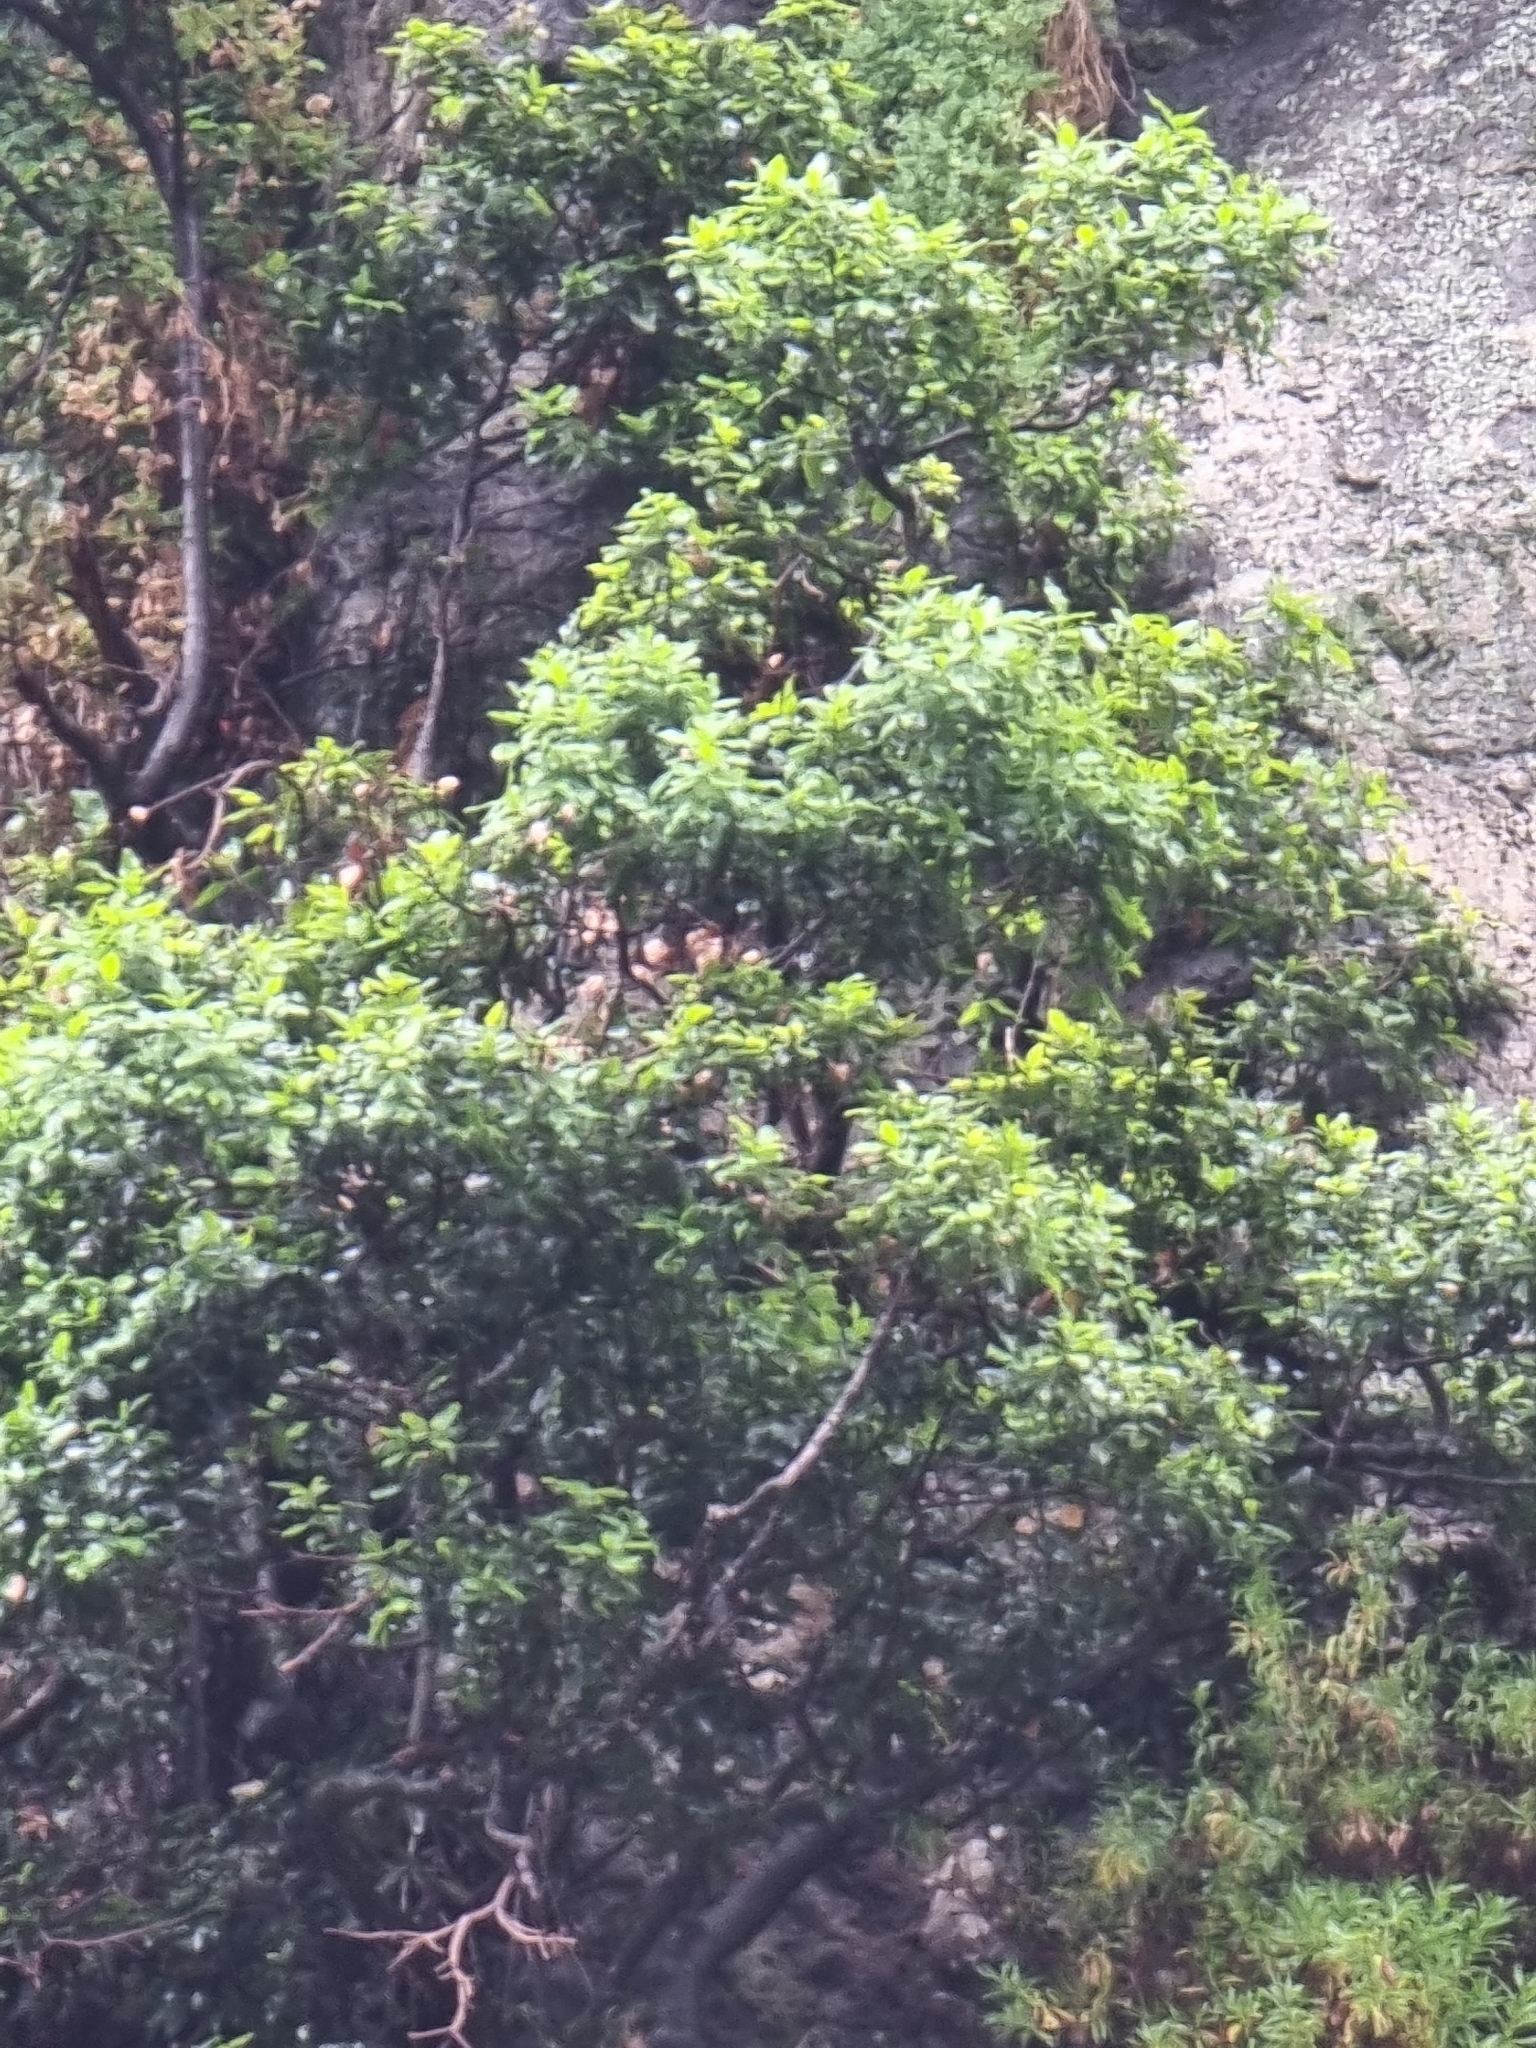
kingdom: Plantae
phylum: Tracheophyta
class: Magnoliopsida
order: Laurales
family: Lauraceae
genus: Apollonias
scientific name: Apollonias barbujana
